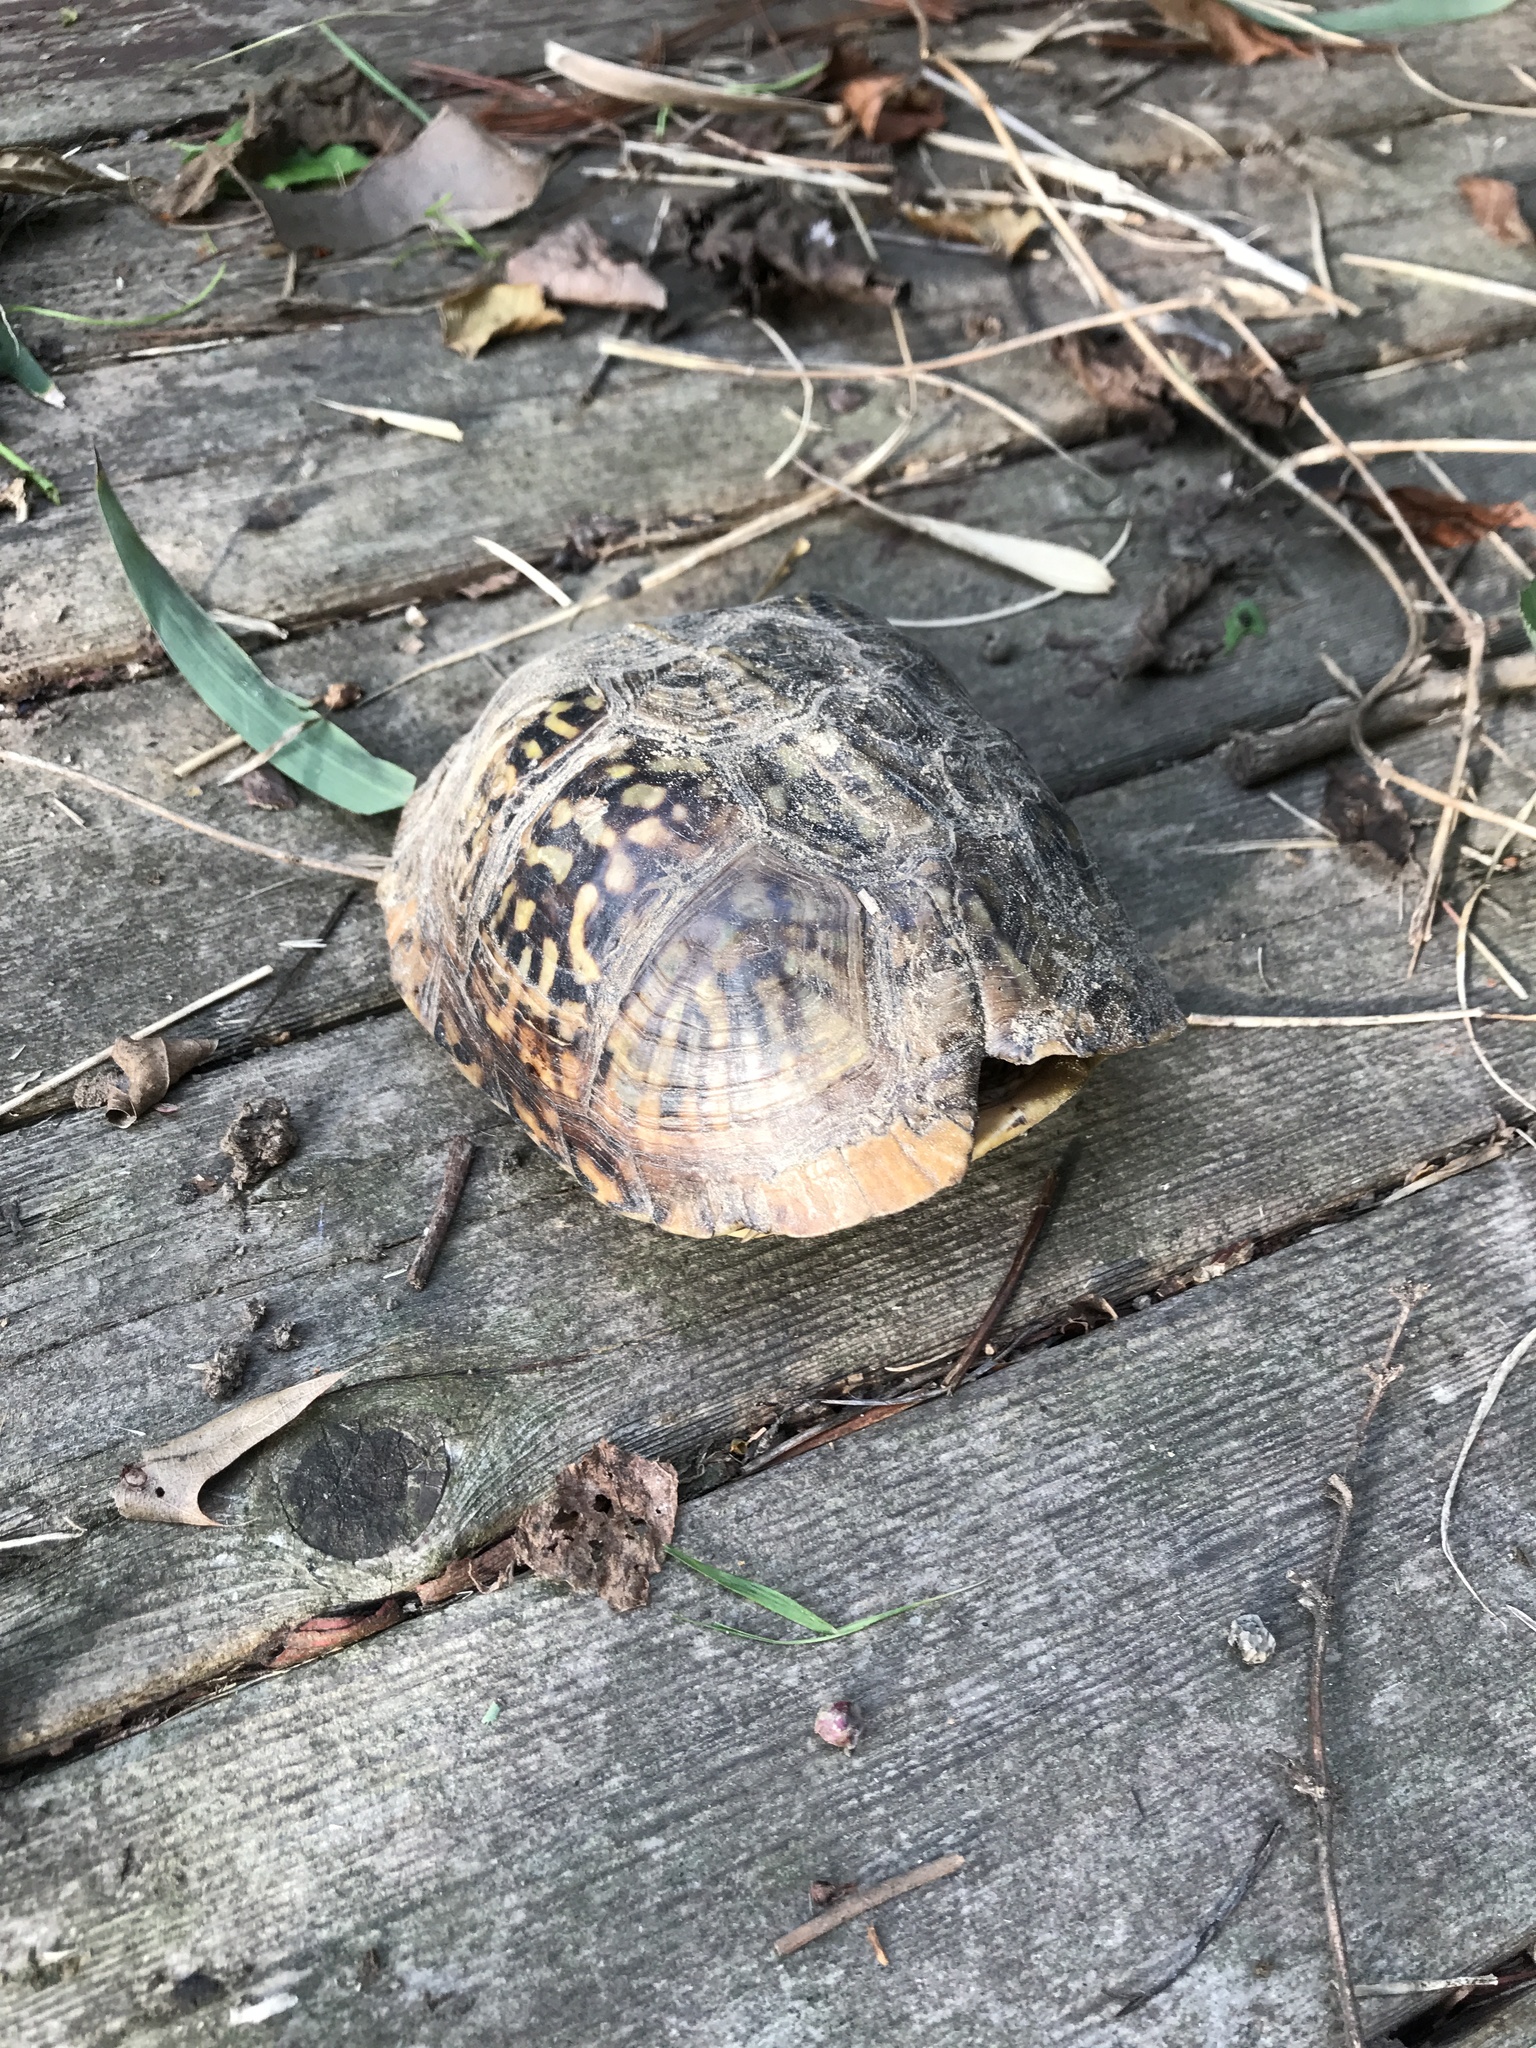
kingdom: Animalia
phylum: Chordata
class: Testudines
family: Emydidae
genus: Terrapene
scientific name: Terrapene carolina
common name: Common box turtle
